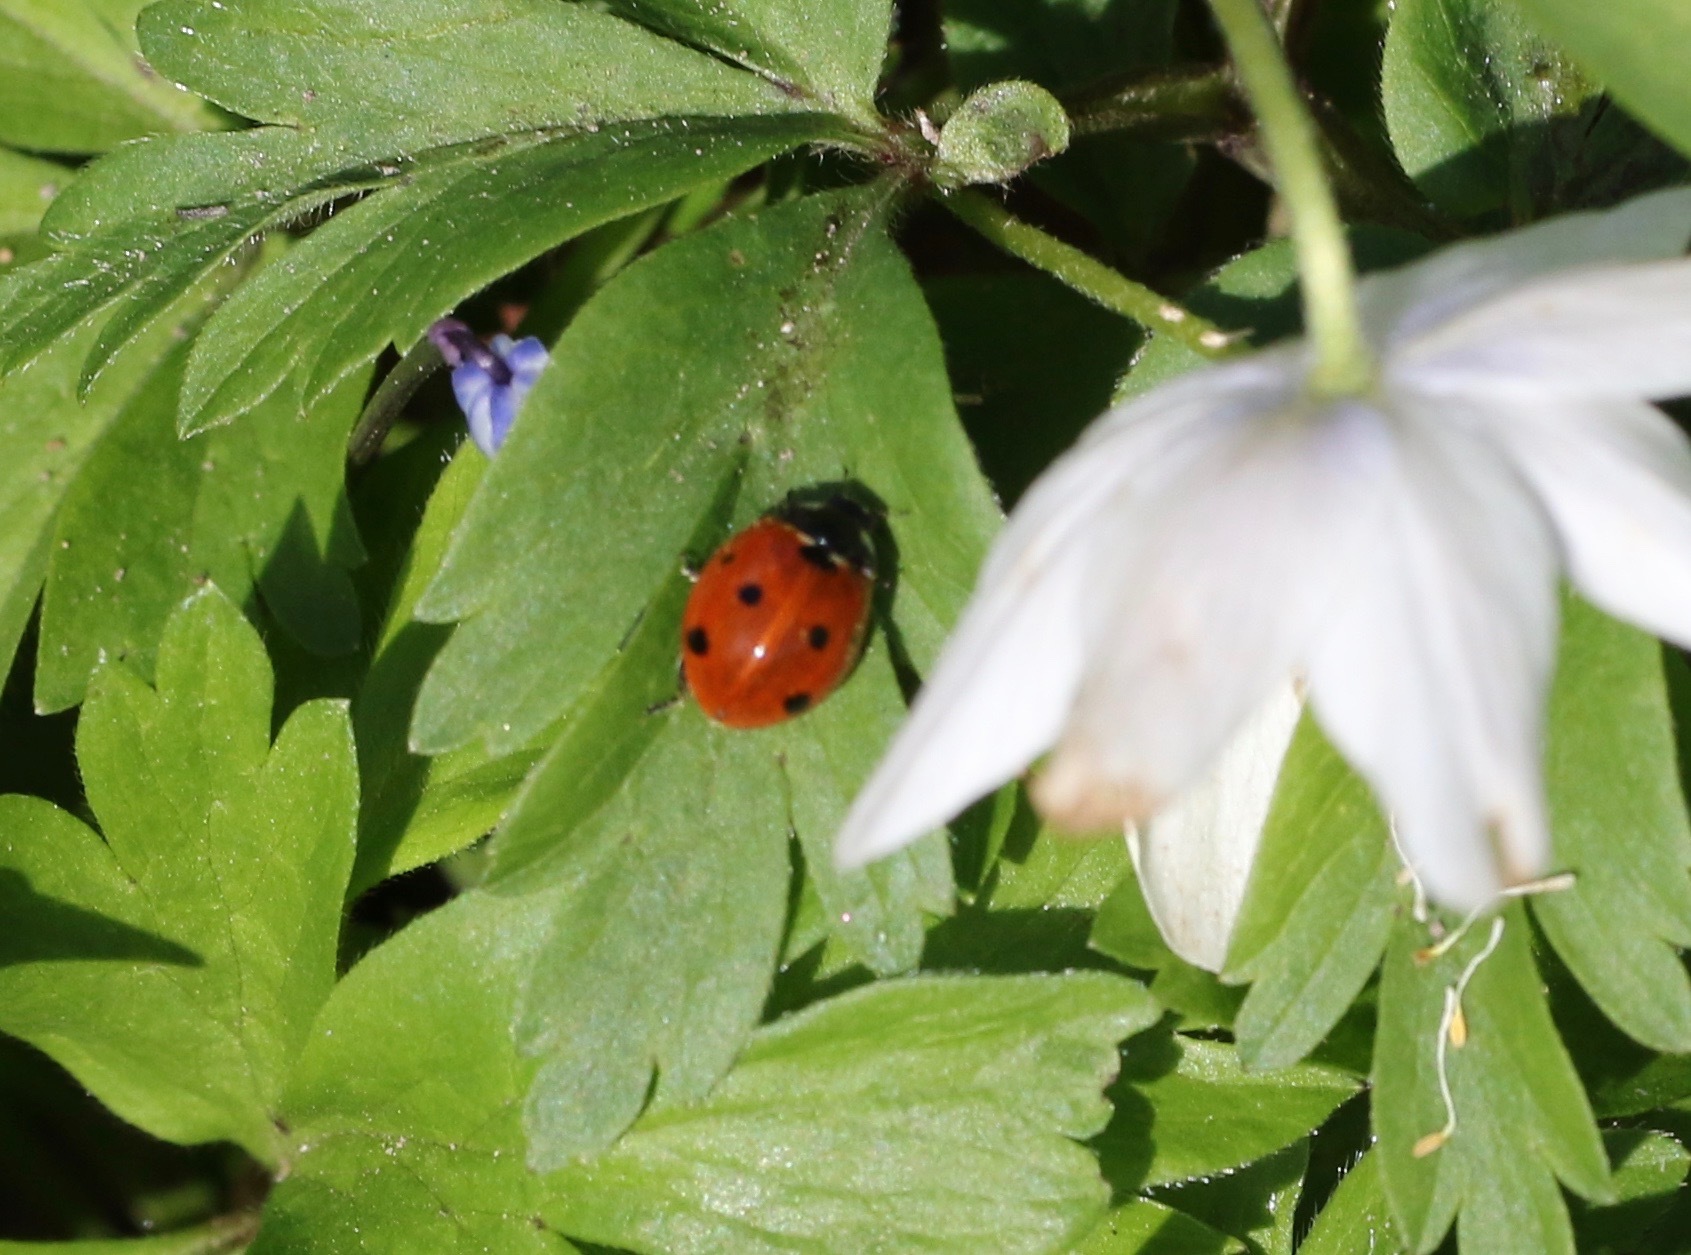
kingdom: Animalia
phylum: Arthropoda
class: Insecta
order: Coleoptera
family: Coccinellidae
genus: Coccinella
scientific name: Coccinella septempunctata
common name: Sevenspotted lady beetle
